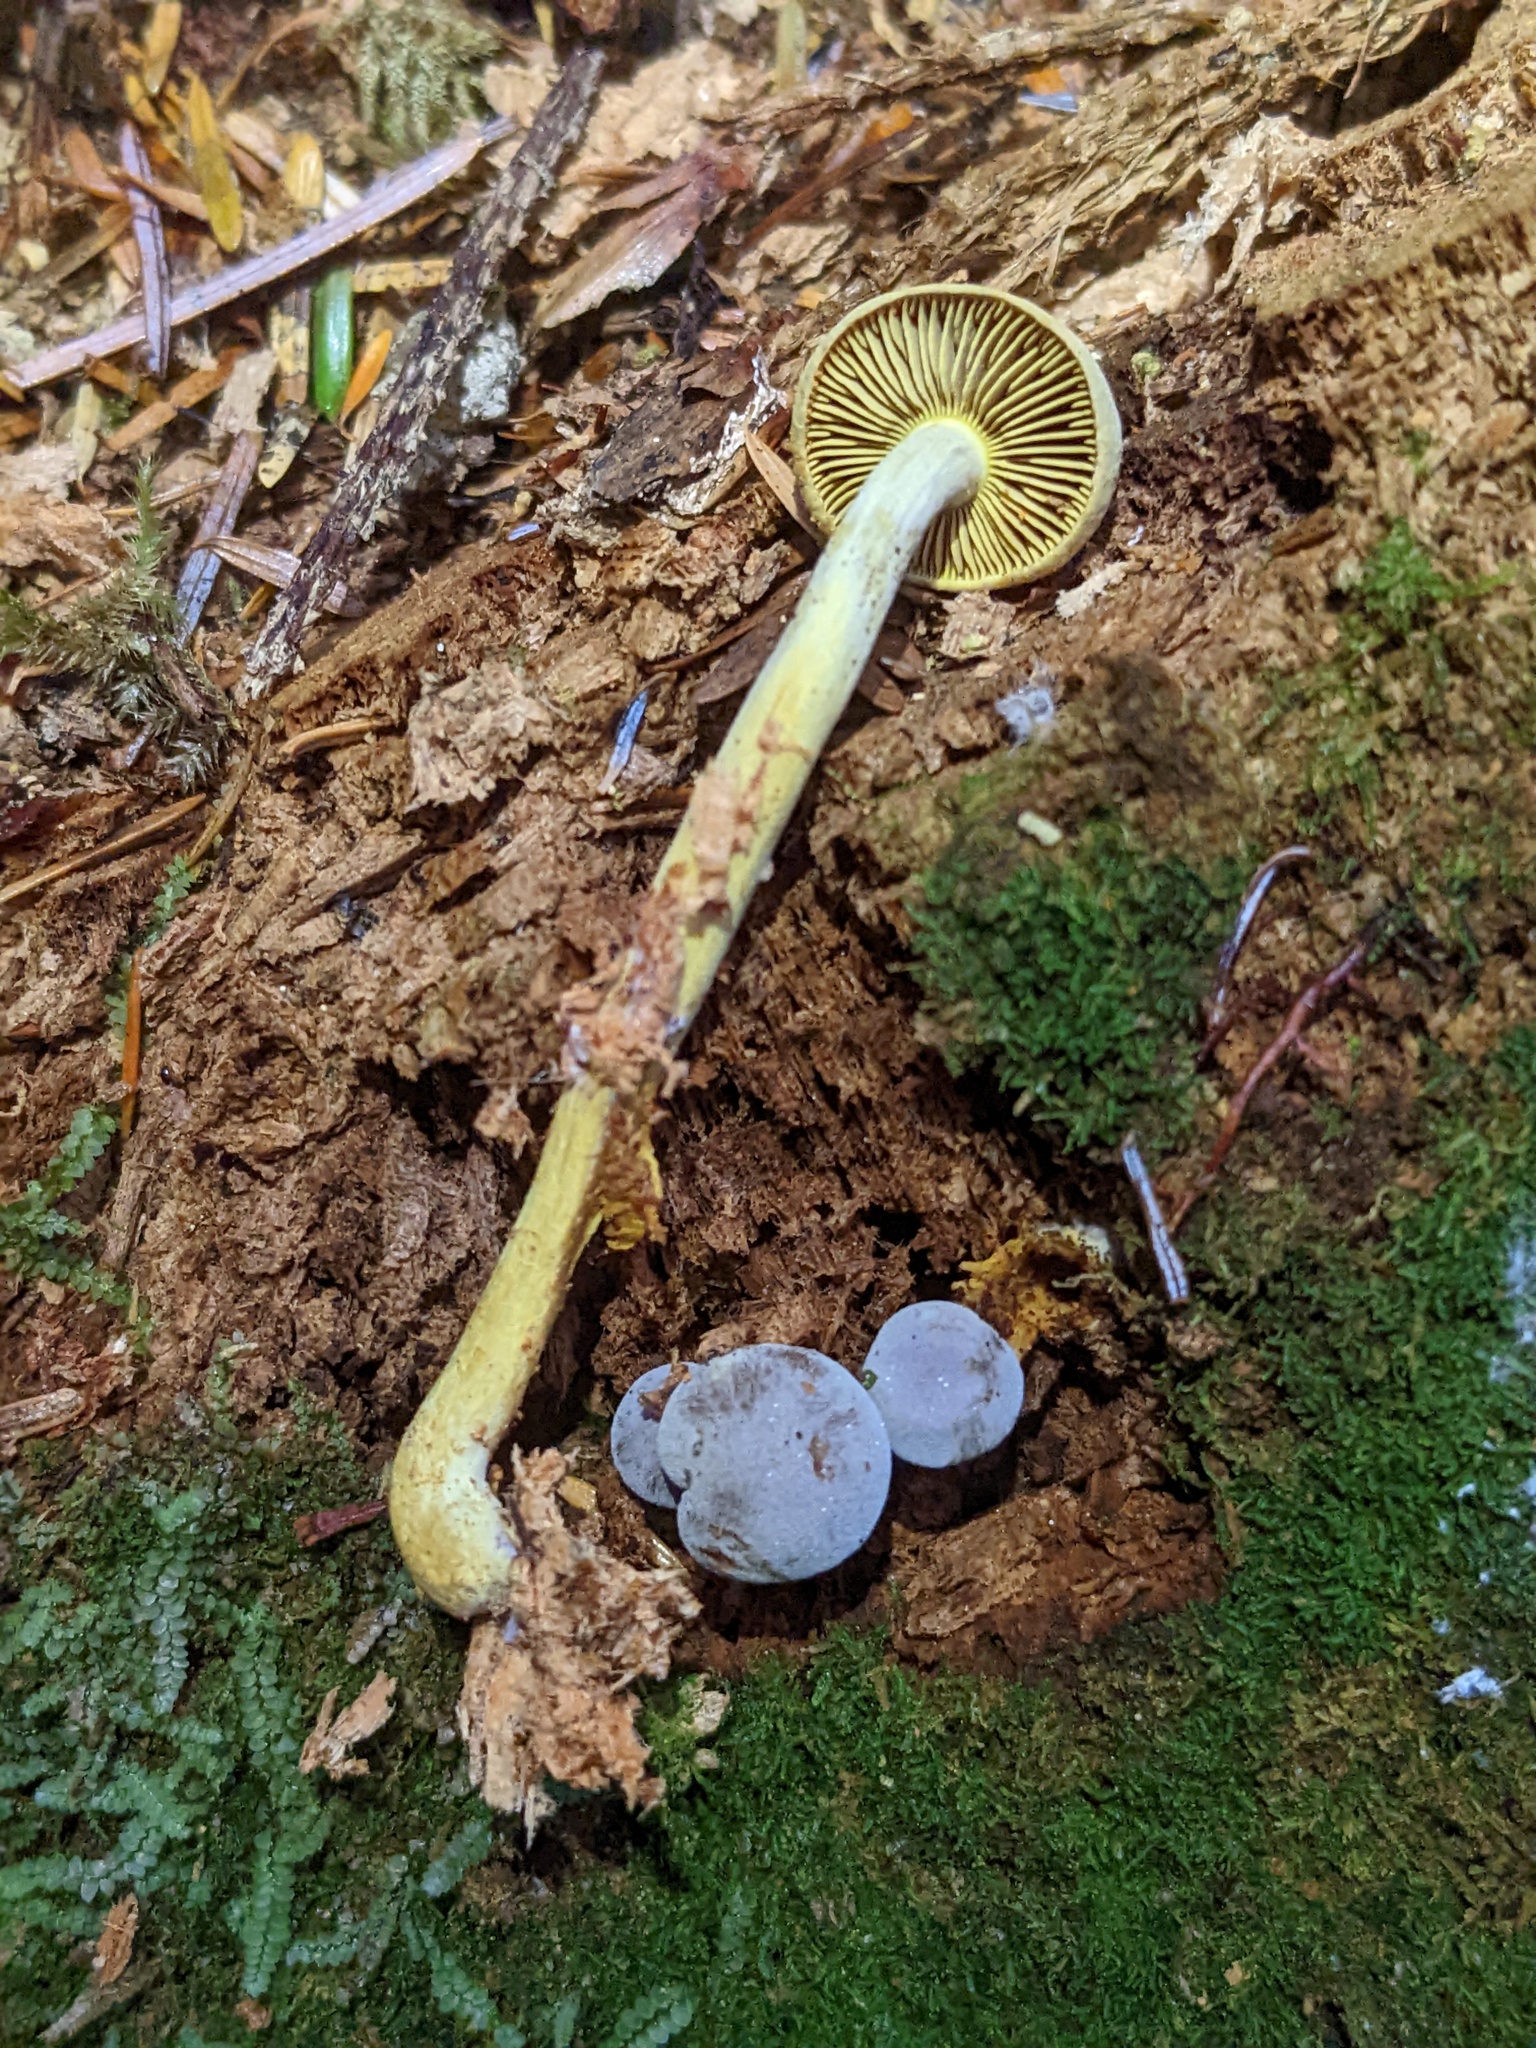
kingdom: Fungi
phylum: Basidiomycota
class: Agaricomycetes
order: Agaricales
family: Hymenogastraceae
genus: Gymnopilus
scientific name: Gymnopilus punctifolius
